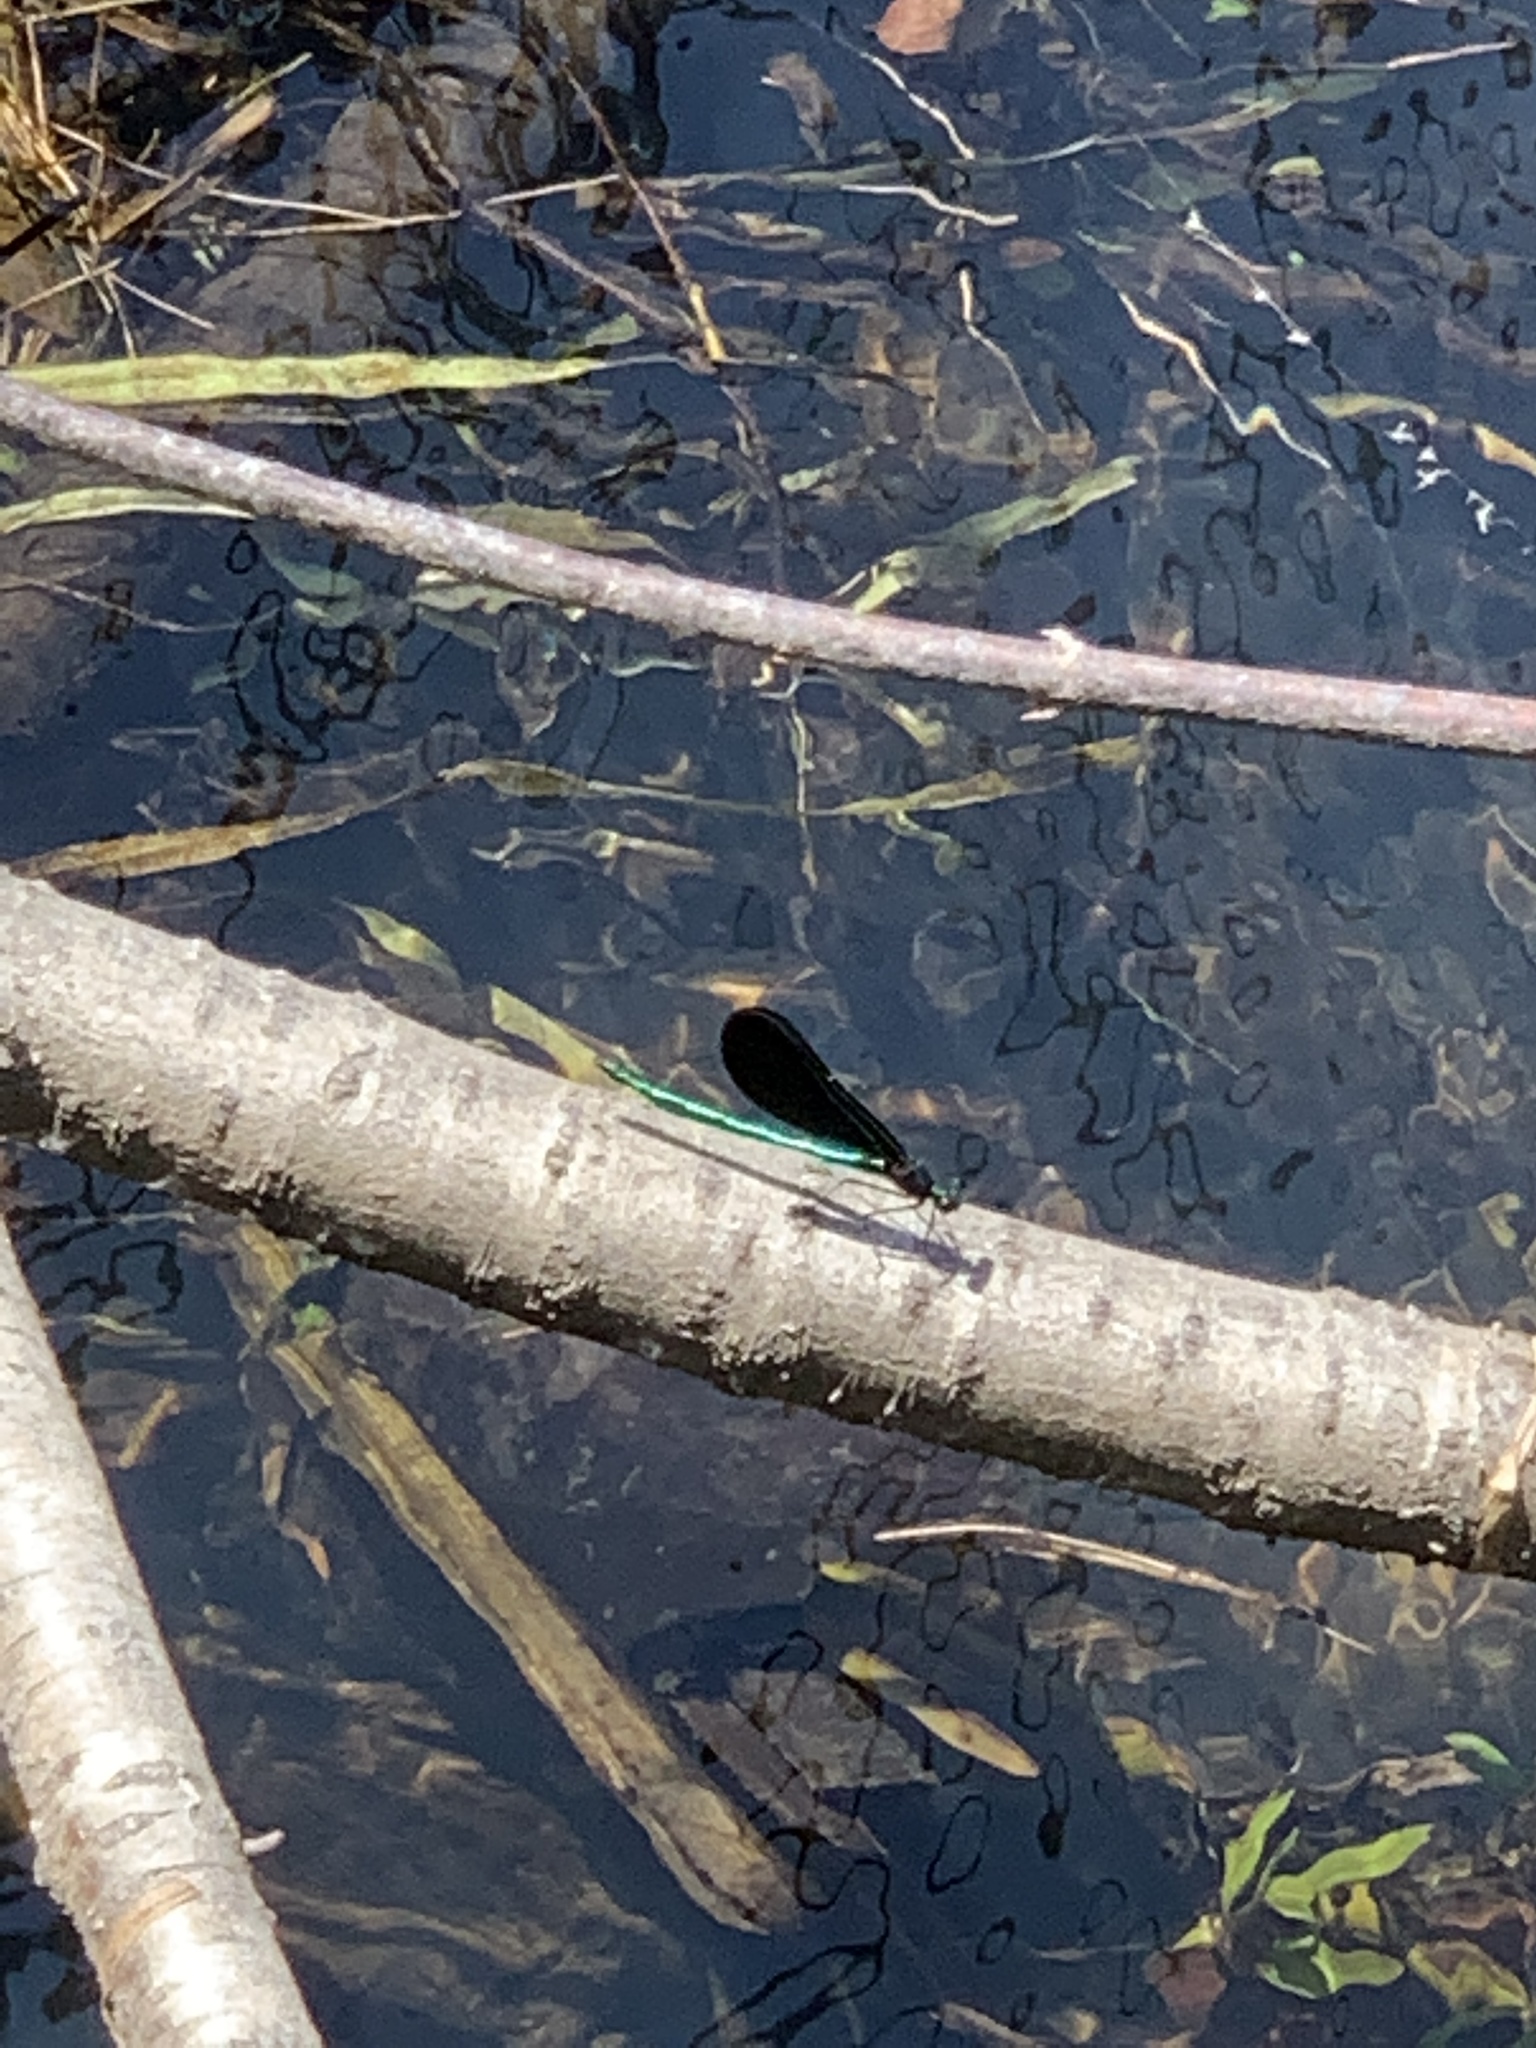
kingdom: Animalia
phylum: Arthropoda
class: Insecta
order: Odonata
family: Calopterygidae
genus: Calopteryx
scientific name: Calopteryx maculata
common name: Ebony jewelwing
